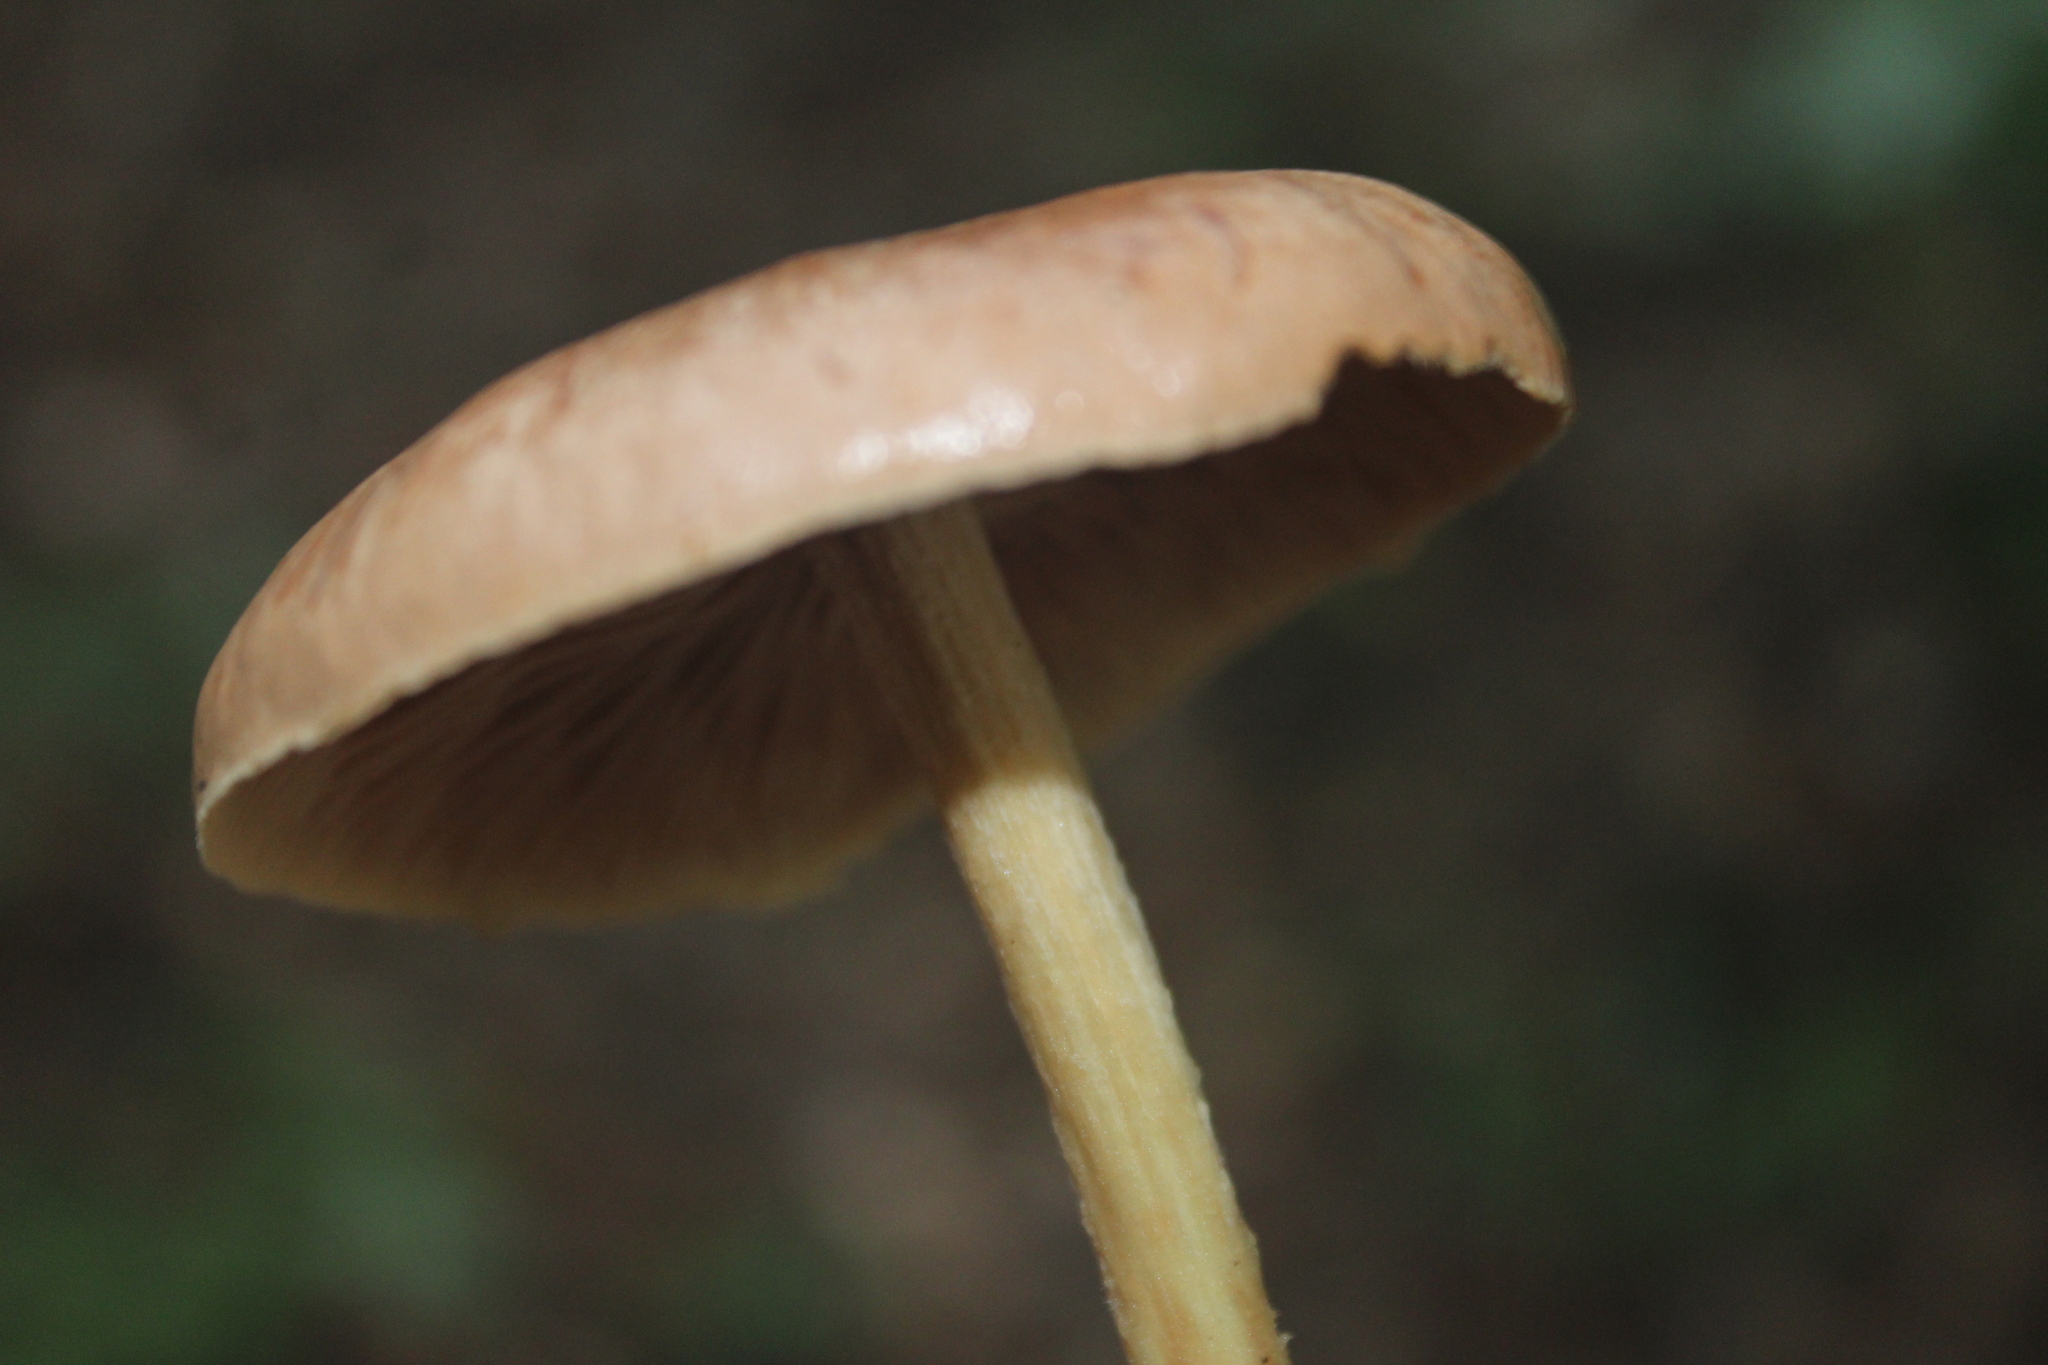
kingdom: Fungi
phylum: Basidiomycota
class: Agaricomycetes
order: Agaricales
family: Omphalotaceae
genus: Collybiopsis
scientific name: Collybiopsis peronata
